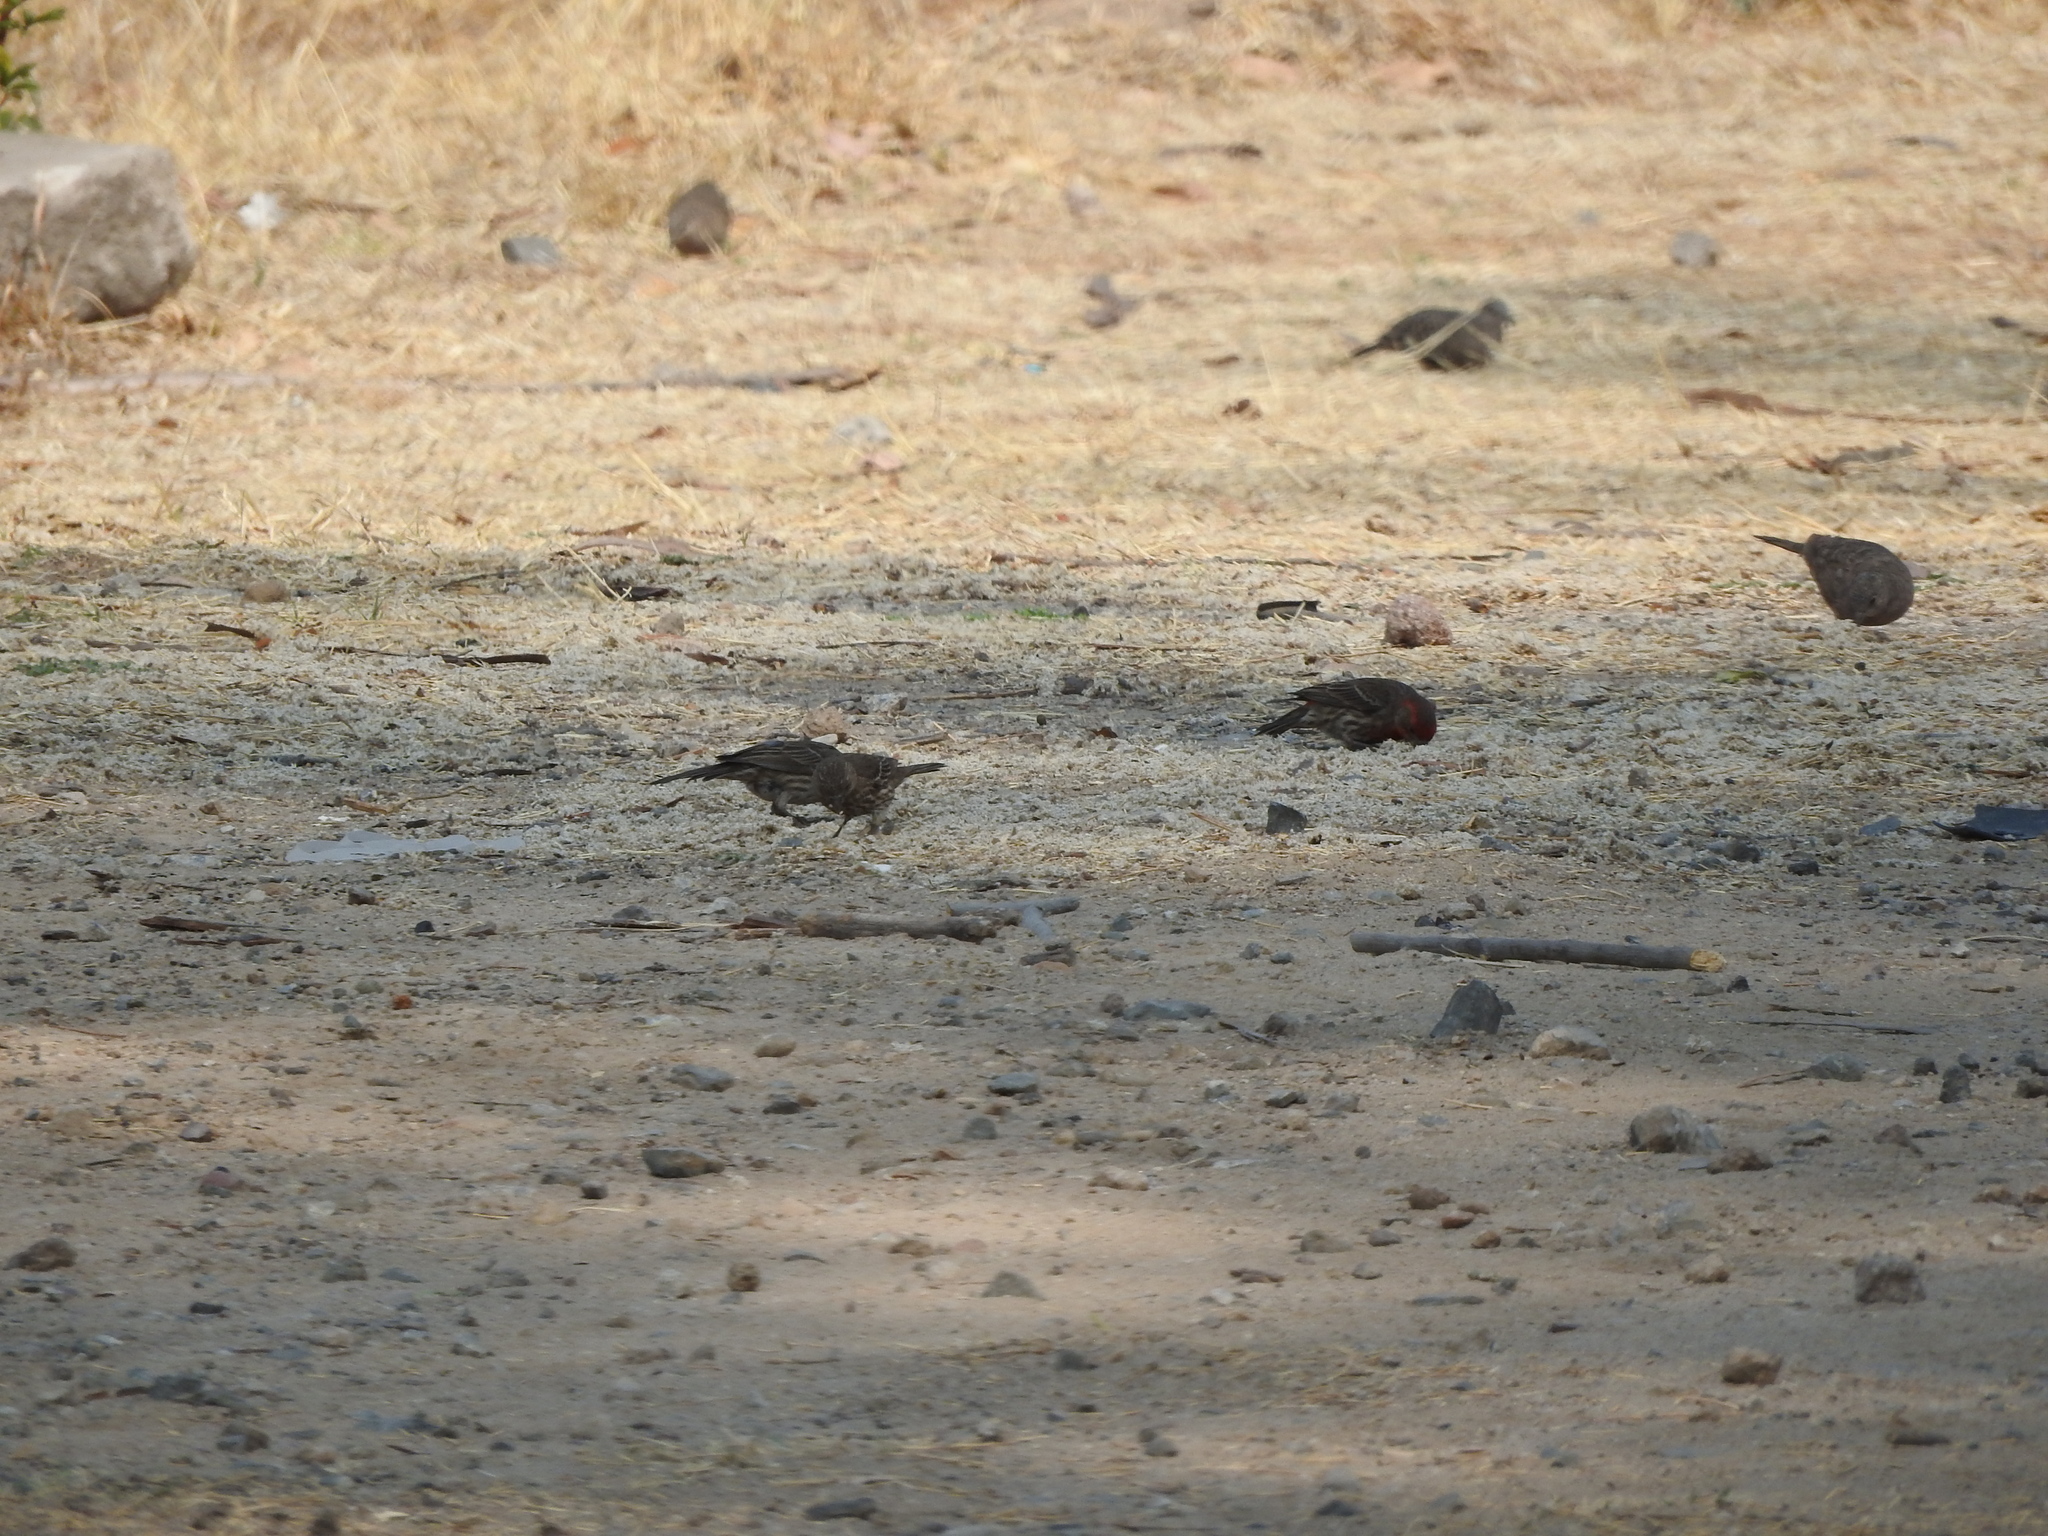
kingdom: Animalia
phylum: Chordata
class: Aves
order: Passeriformes
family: Fringillidae
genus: Haemorhous
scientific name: Haemorhous mexicanus
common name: House finch
